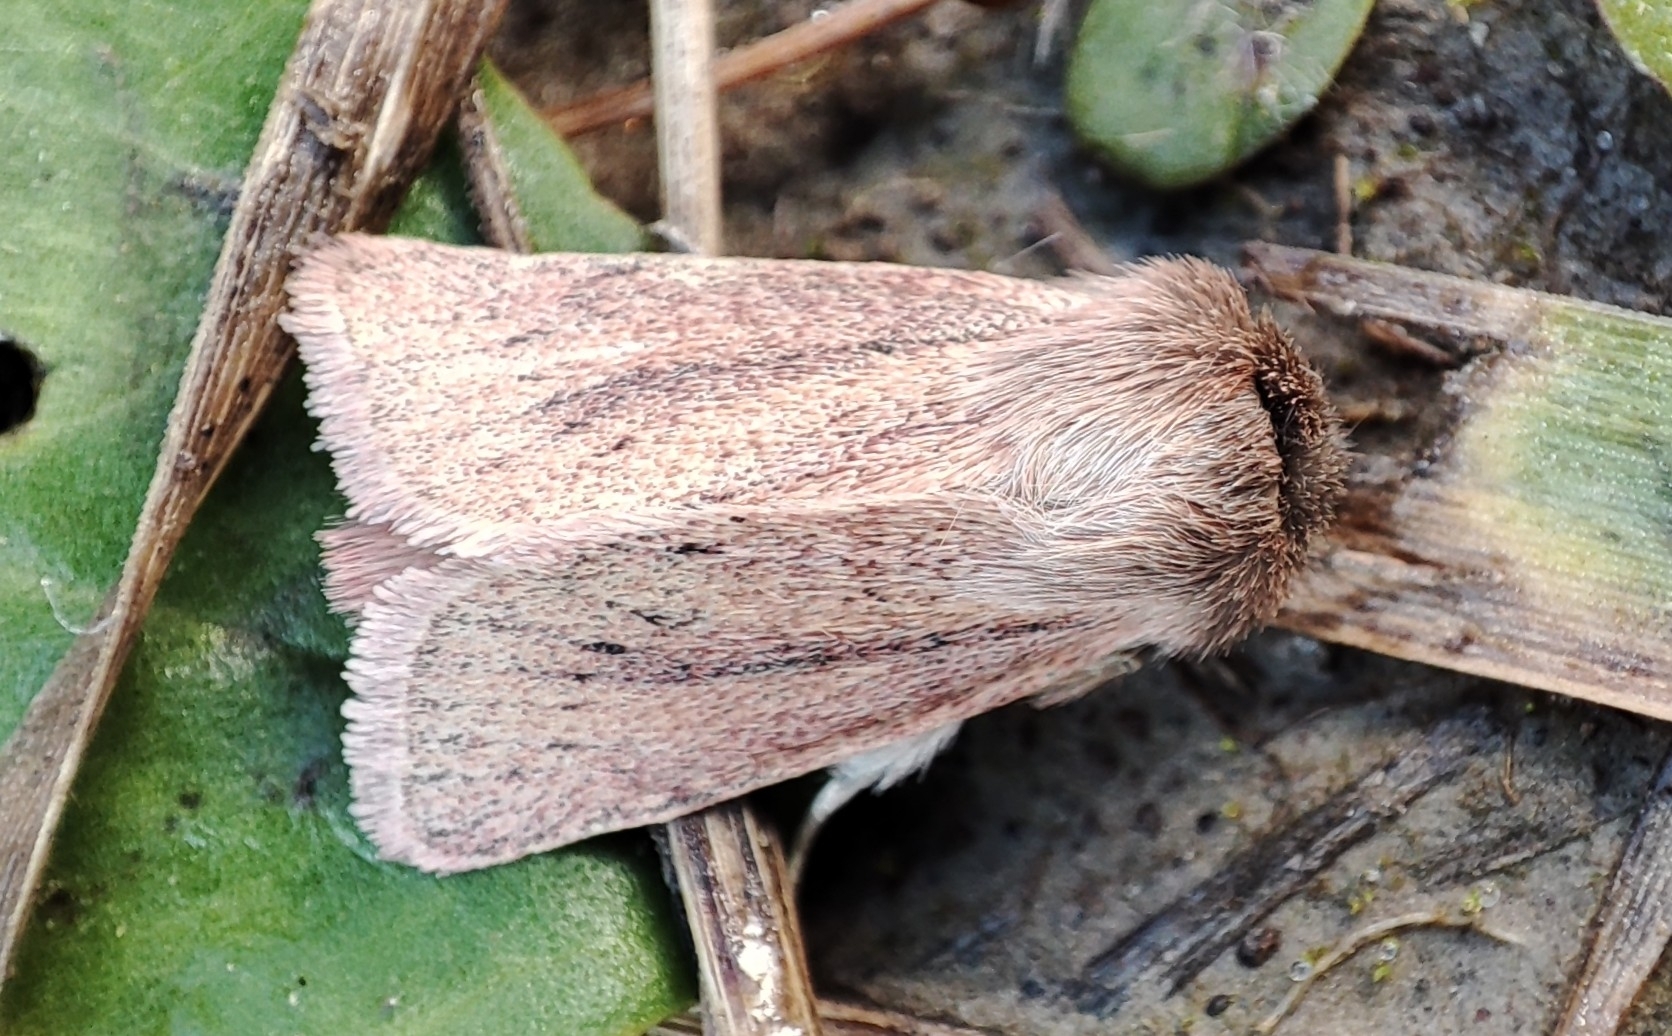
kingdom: Animalia
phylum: Arthropoda
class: Insecta
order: Lepidoptera
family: Noctuidae
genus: Denticucullus
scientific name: Denticucullus pygmina
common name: Small wainscot
